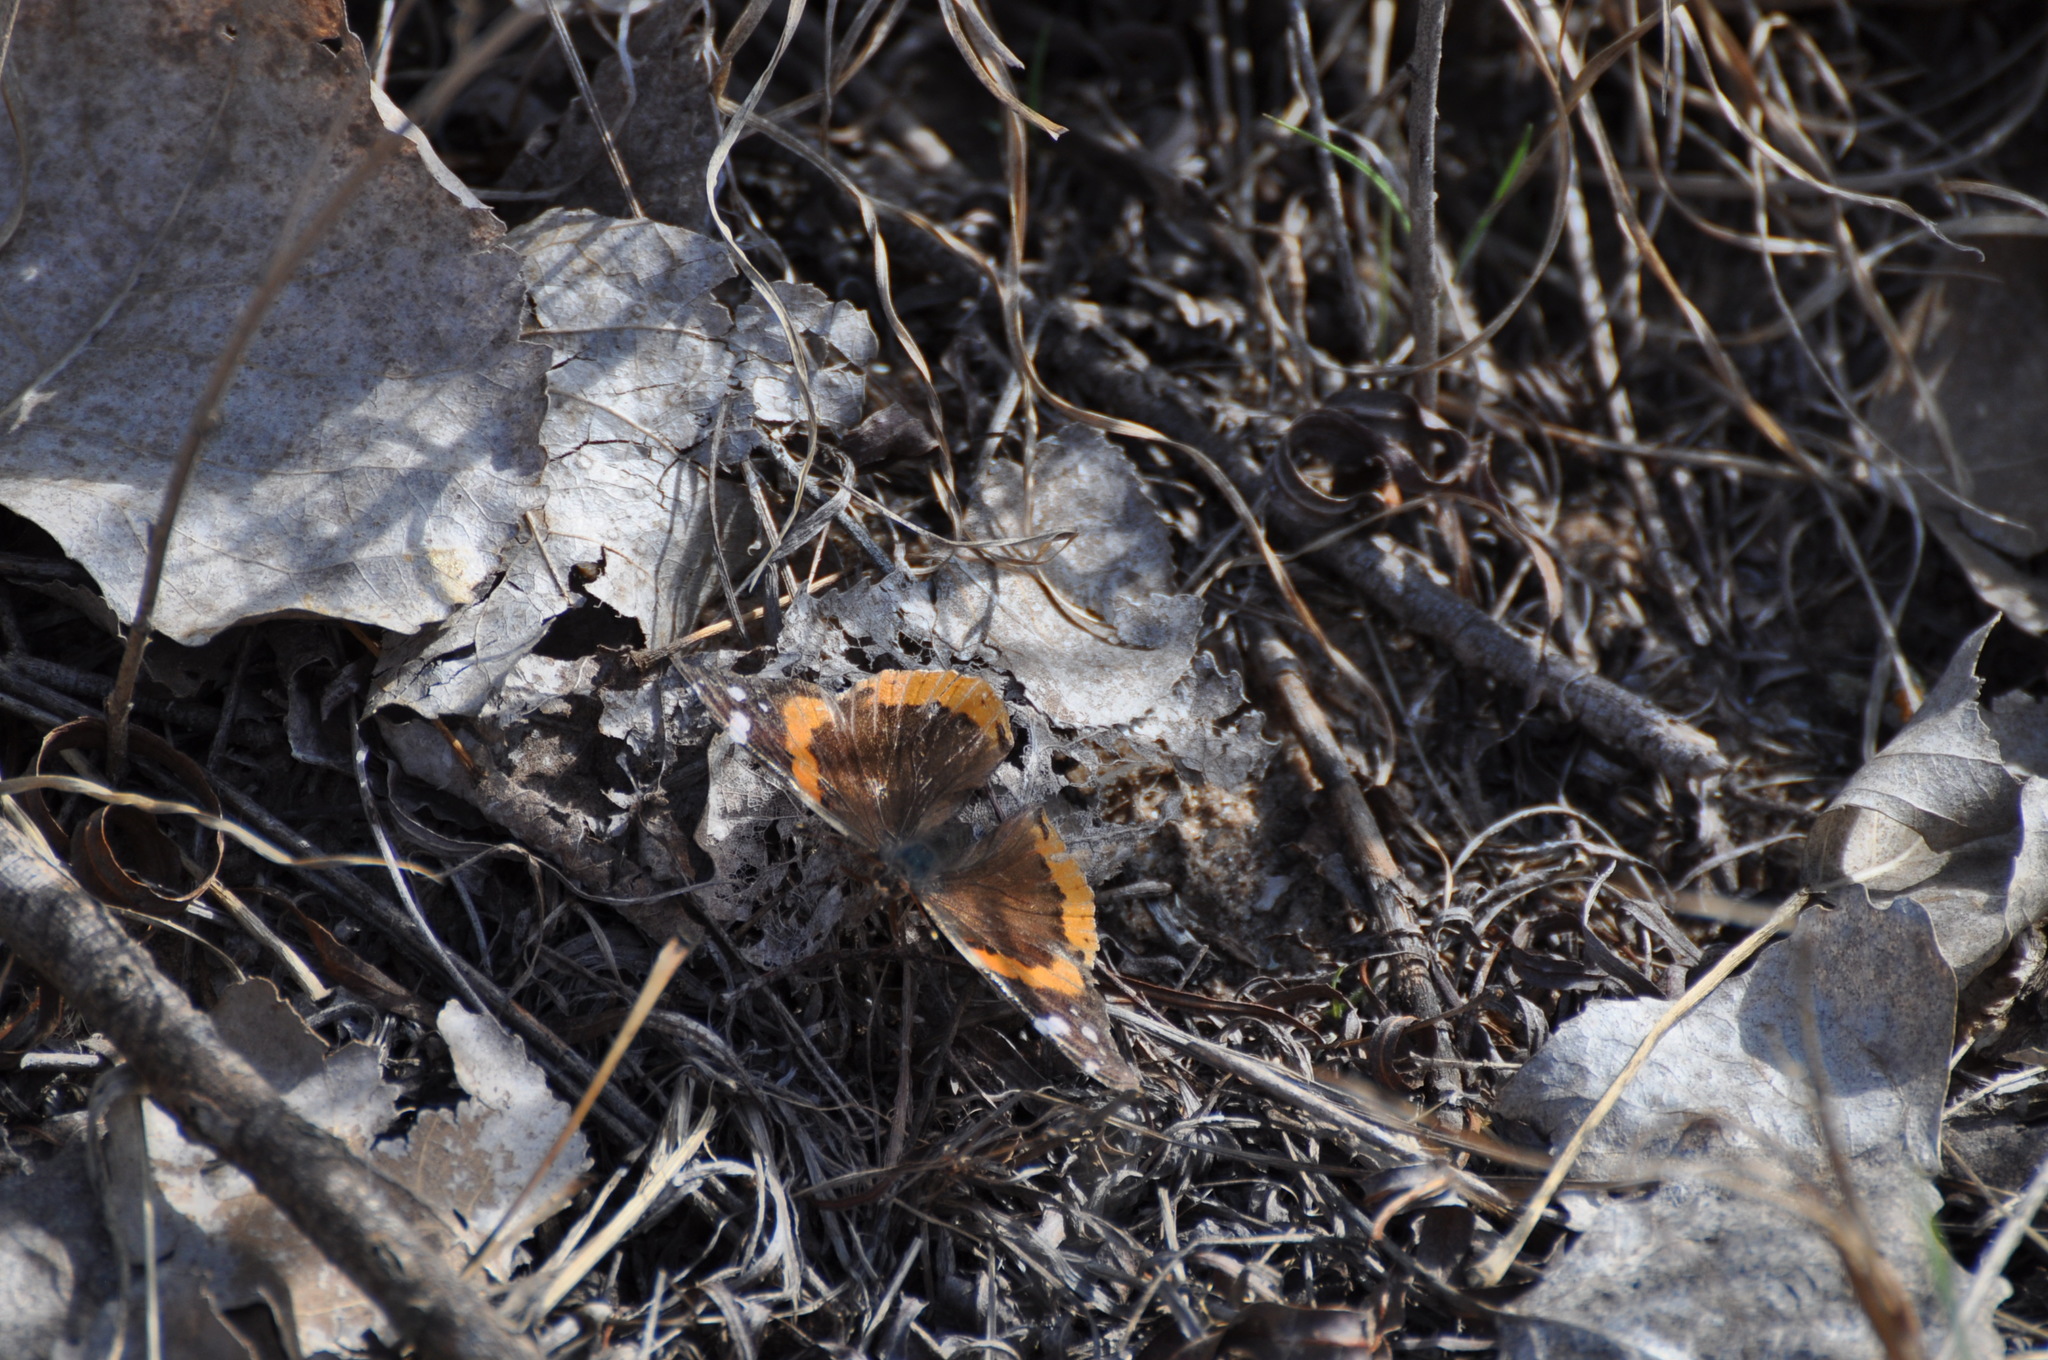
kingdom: Animalia
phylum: Arthropoda
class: Insecta
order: Lepidoptera
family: Nymphalidae
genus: Vanessa
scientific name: Vanessa atalanta
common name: Red admiral
